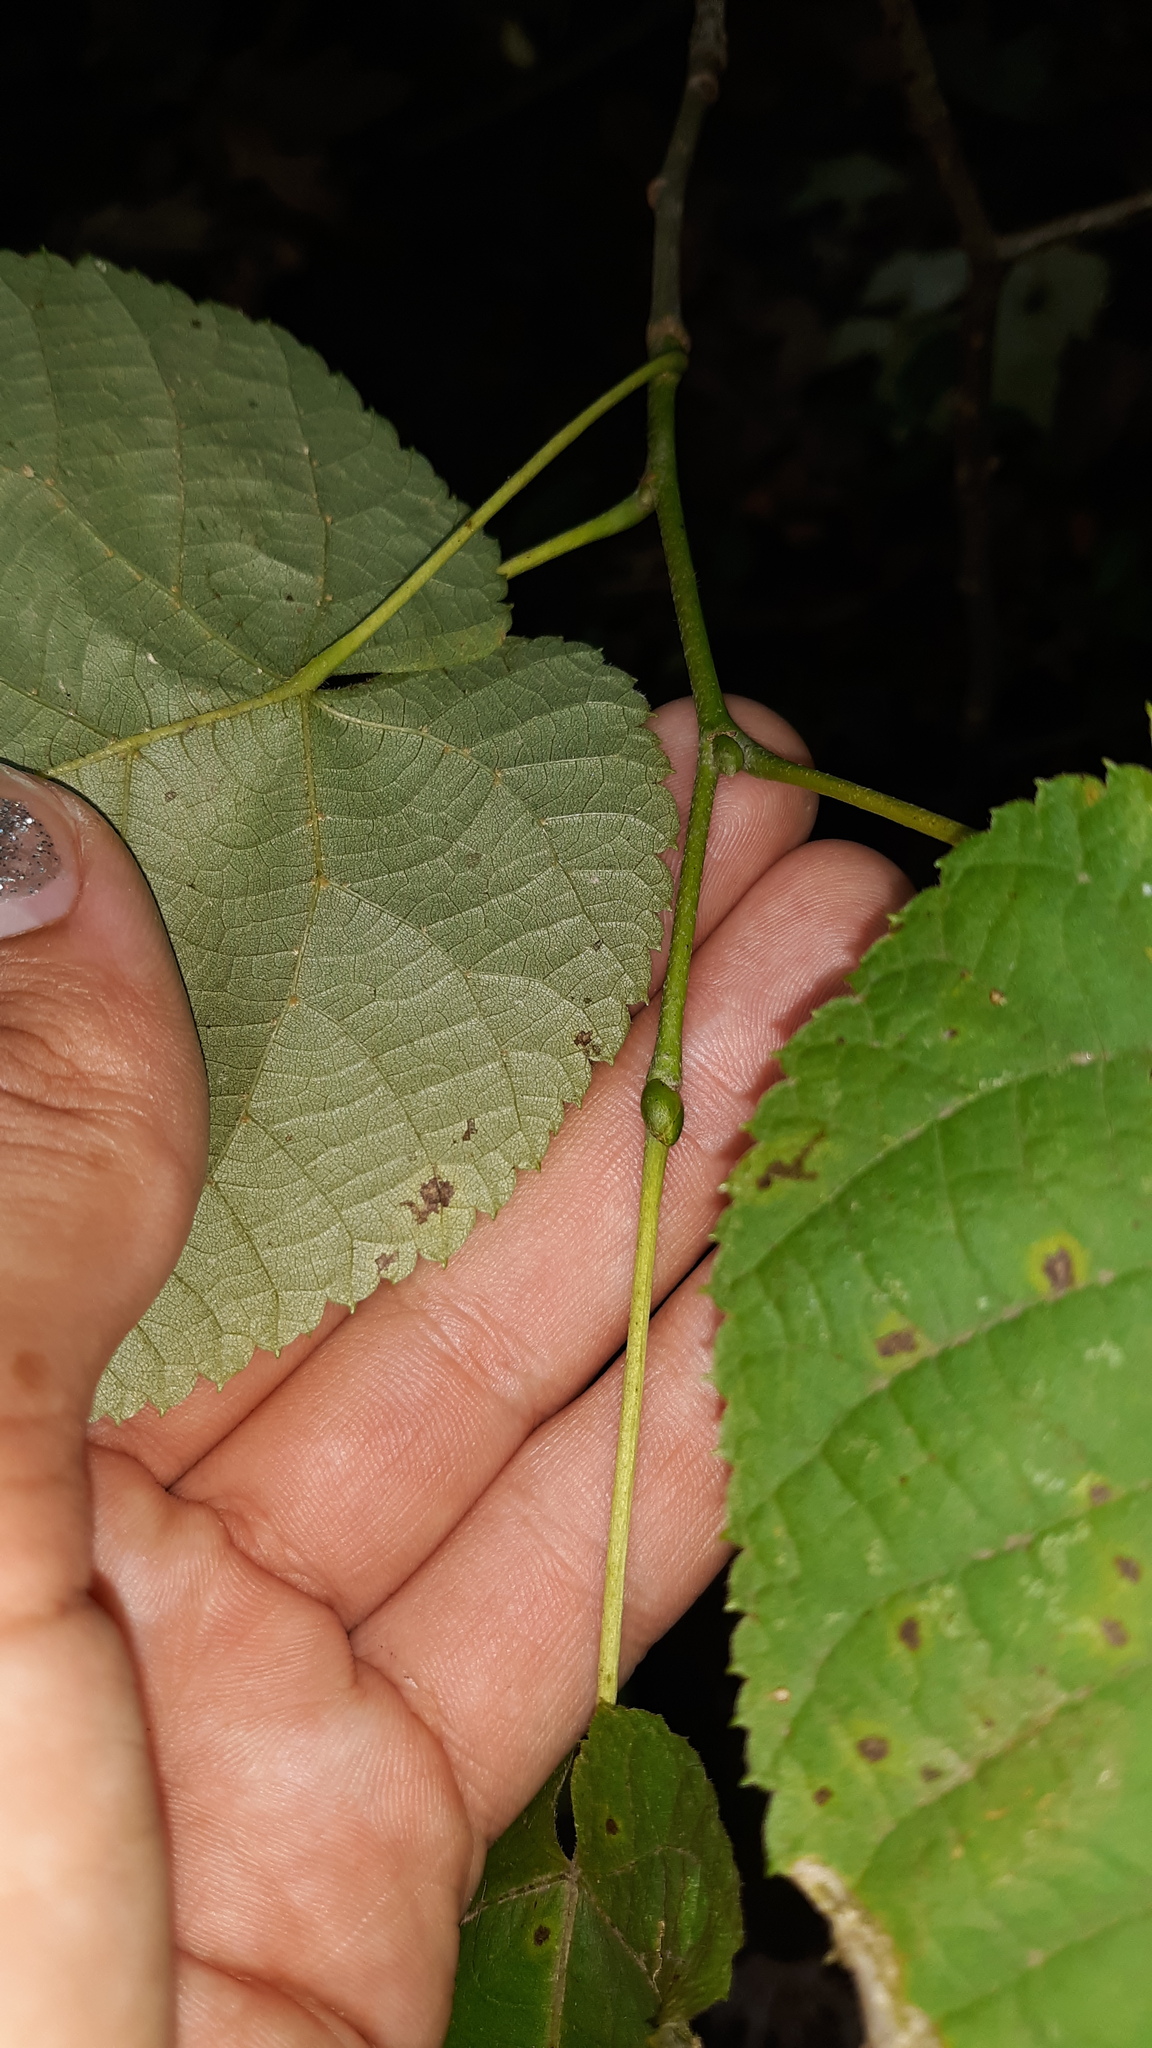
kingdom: Plantae
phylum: Tracheophyta
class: Magnoliopsida
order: Malvales
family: Malvaceae
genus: Tilia
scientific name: Tilia americana
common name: Basswood
